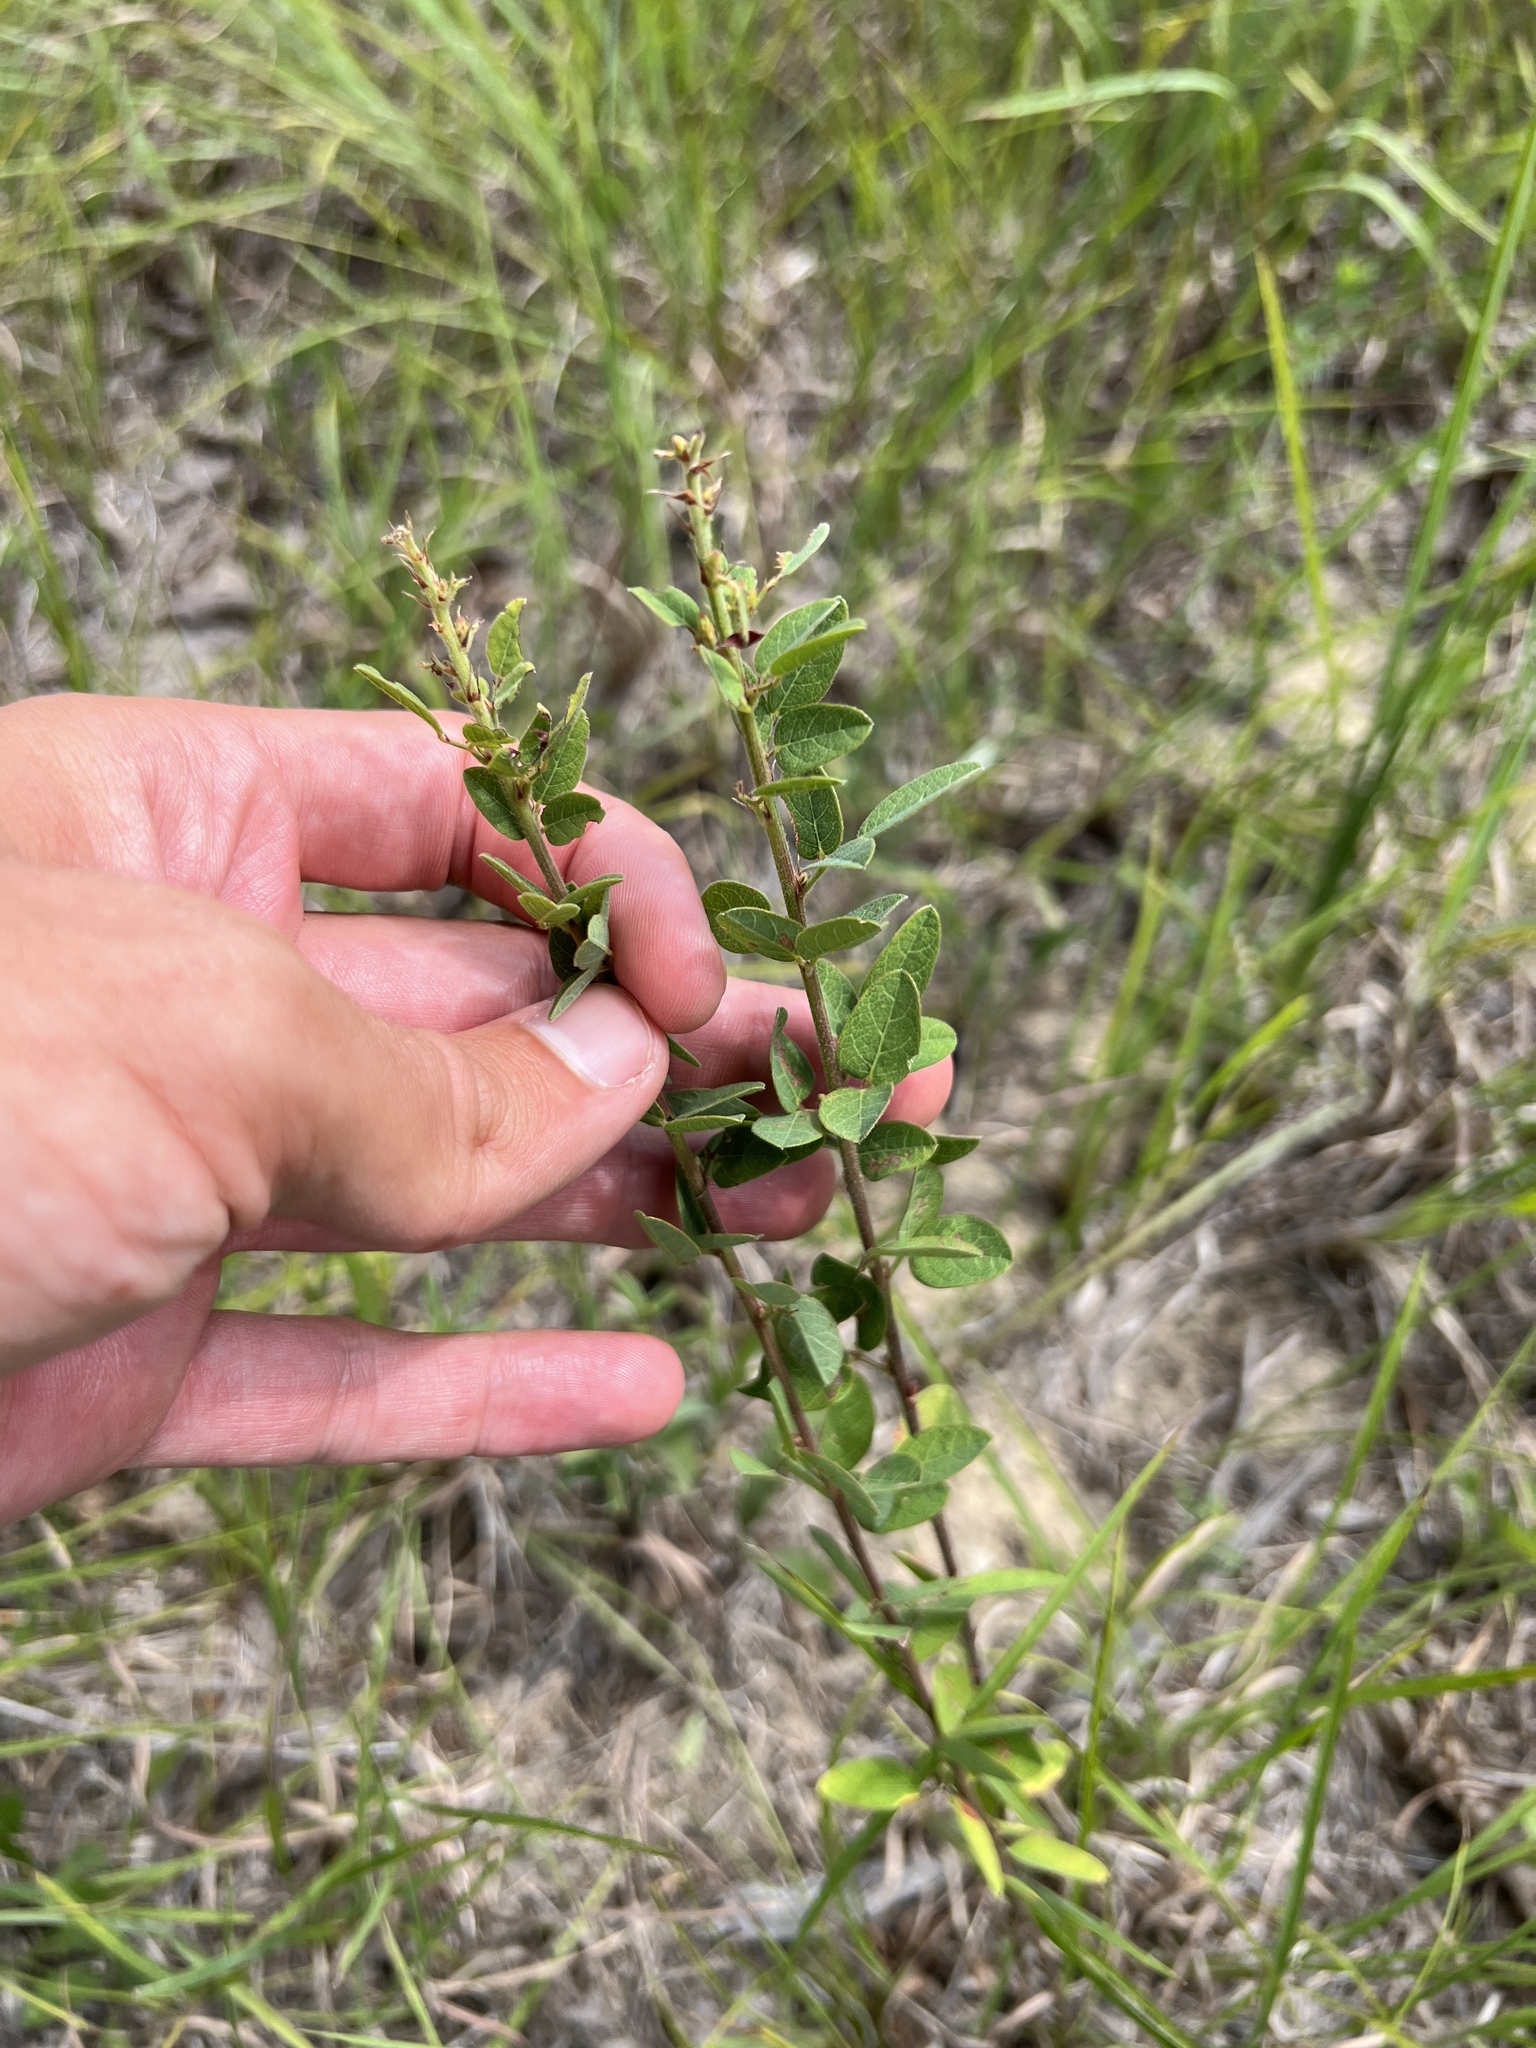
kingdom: Plantae
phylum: Tracheophyta
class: Magnoliopsida
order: Fabales
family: Fabaceae
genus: Desmodium
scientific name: Desmodium ciliare
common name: Hairy small-leaf ticktrefoil
